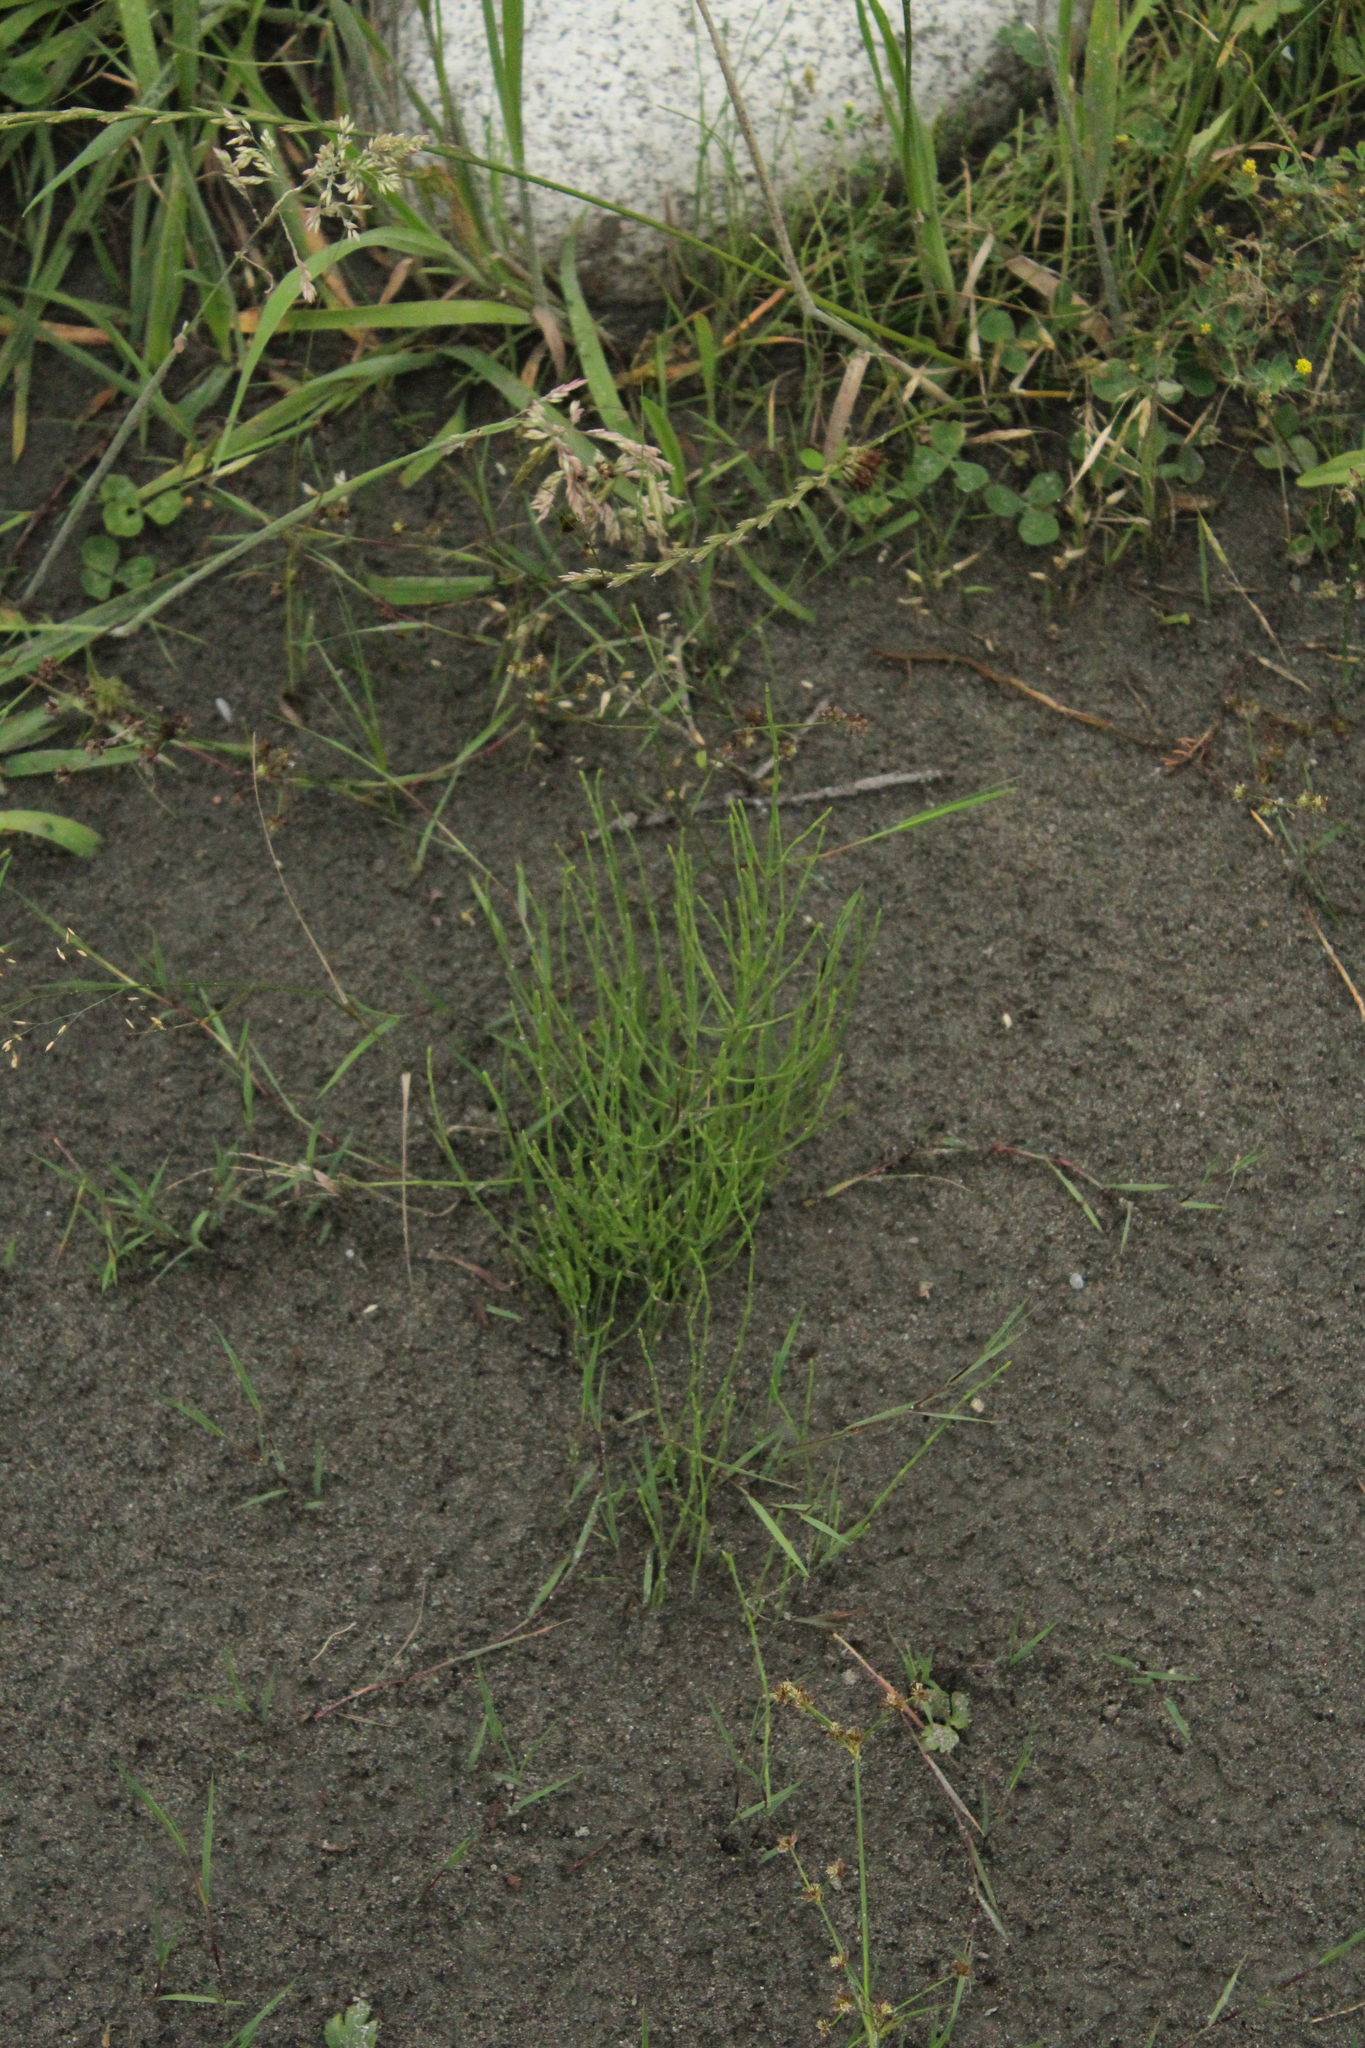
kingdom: Plantae
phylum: Tracheophyta
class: Polypodiopsida
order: Equisetales
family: Equisetaceae
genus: Equisetum
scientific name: Equisetum arvense
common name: Field horsetail
